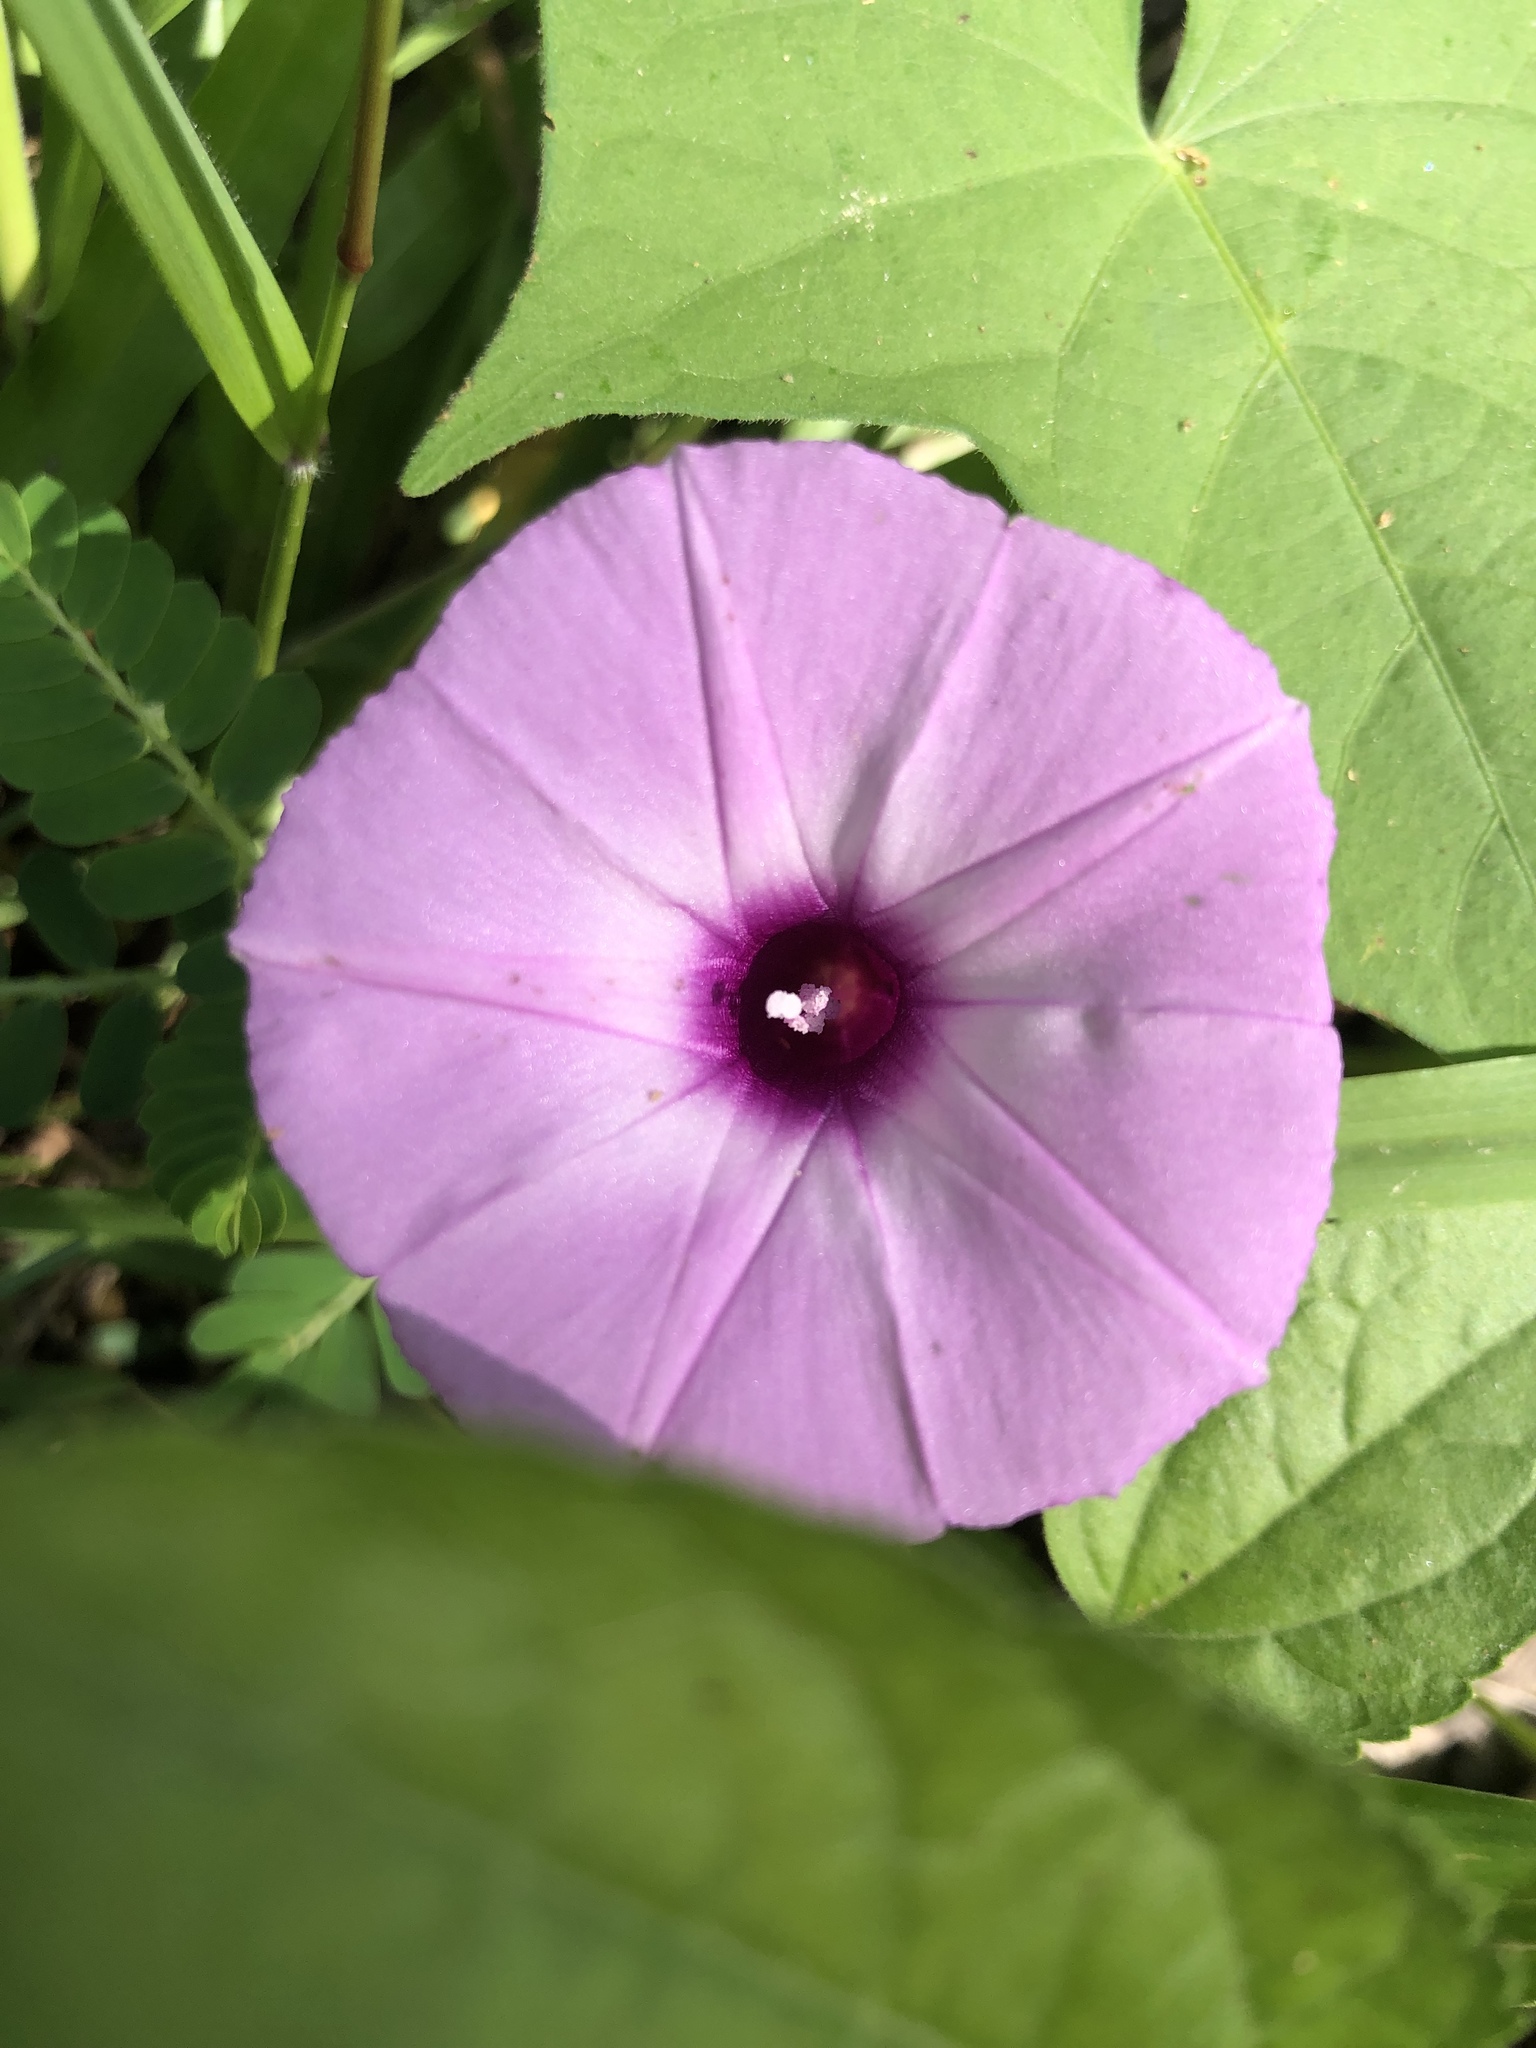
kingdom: Plantae
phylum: Tracheophyta
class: Magnoliopsida
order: Solanales
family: Convolvulaceae
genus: Ipomoea
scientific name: Ipomoea cordatotriloba
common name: Cotton morning glory
